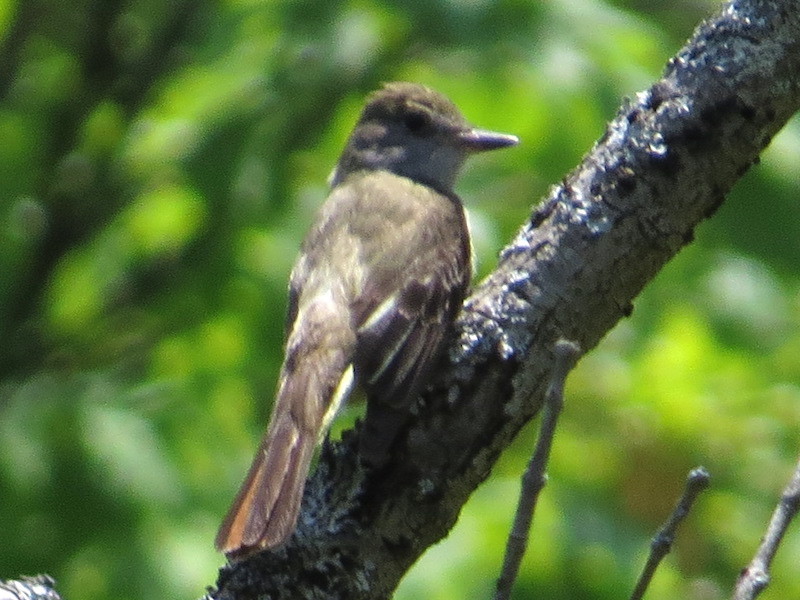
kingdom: Animalia
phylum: Chordata
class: Aves
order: Passeriformes
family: Tyrannidae
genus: Myiarchus
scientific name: Myiarchus crinitus
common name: Great crested flycatcher
